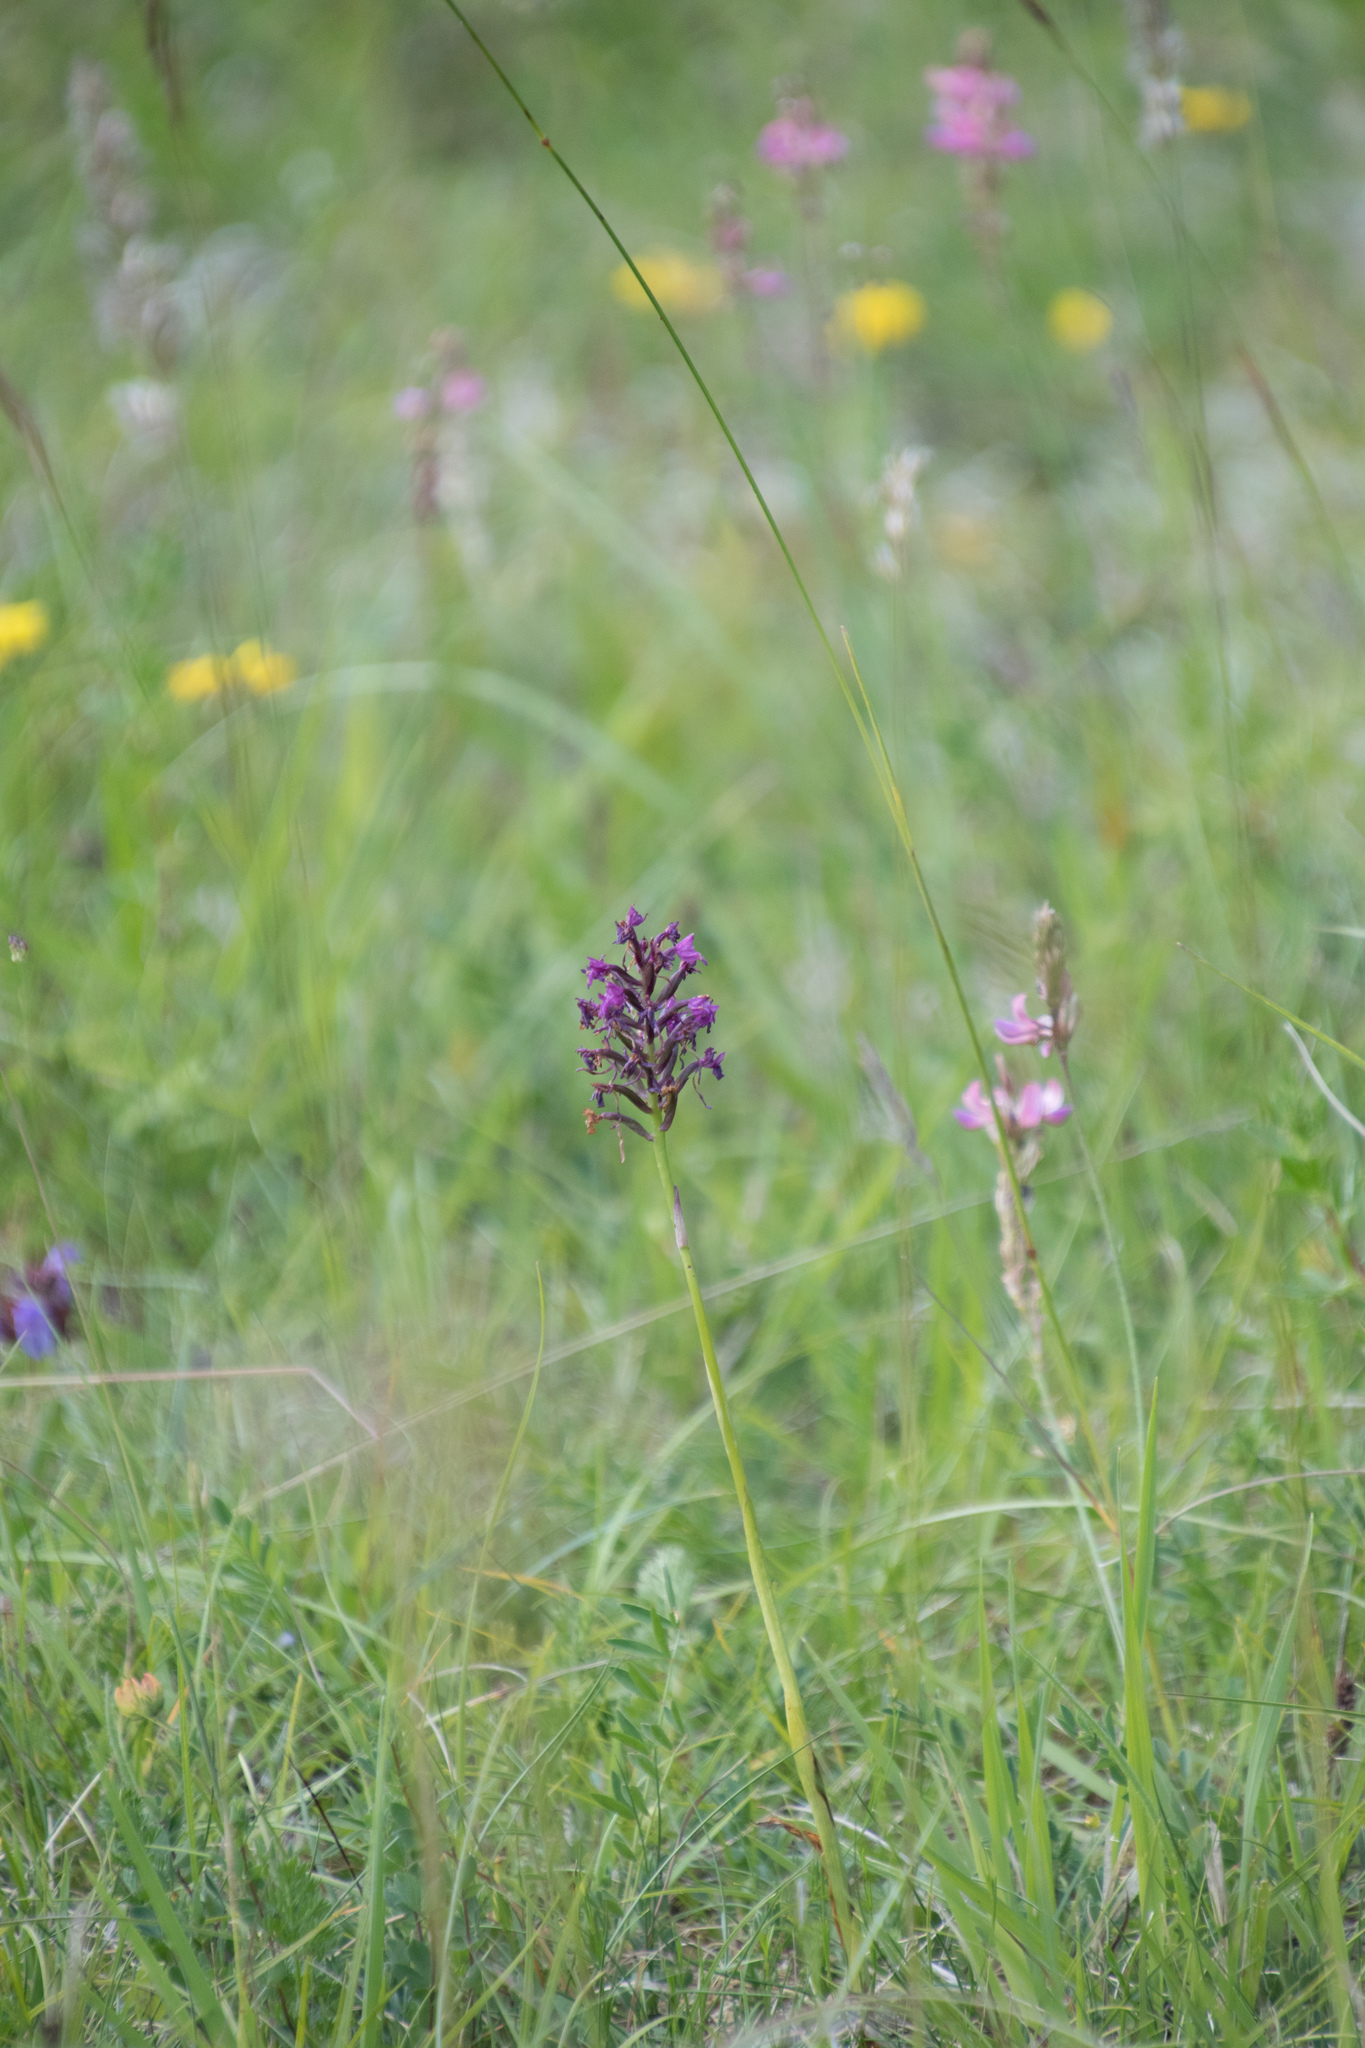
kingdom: Plantae
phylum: Tracheophyta
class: Liliopsida
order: Asparagales
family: Orchidaceae
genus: Anacamptis
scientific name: Anacamptis pyramidalis
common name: Pyramidal orchid
